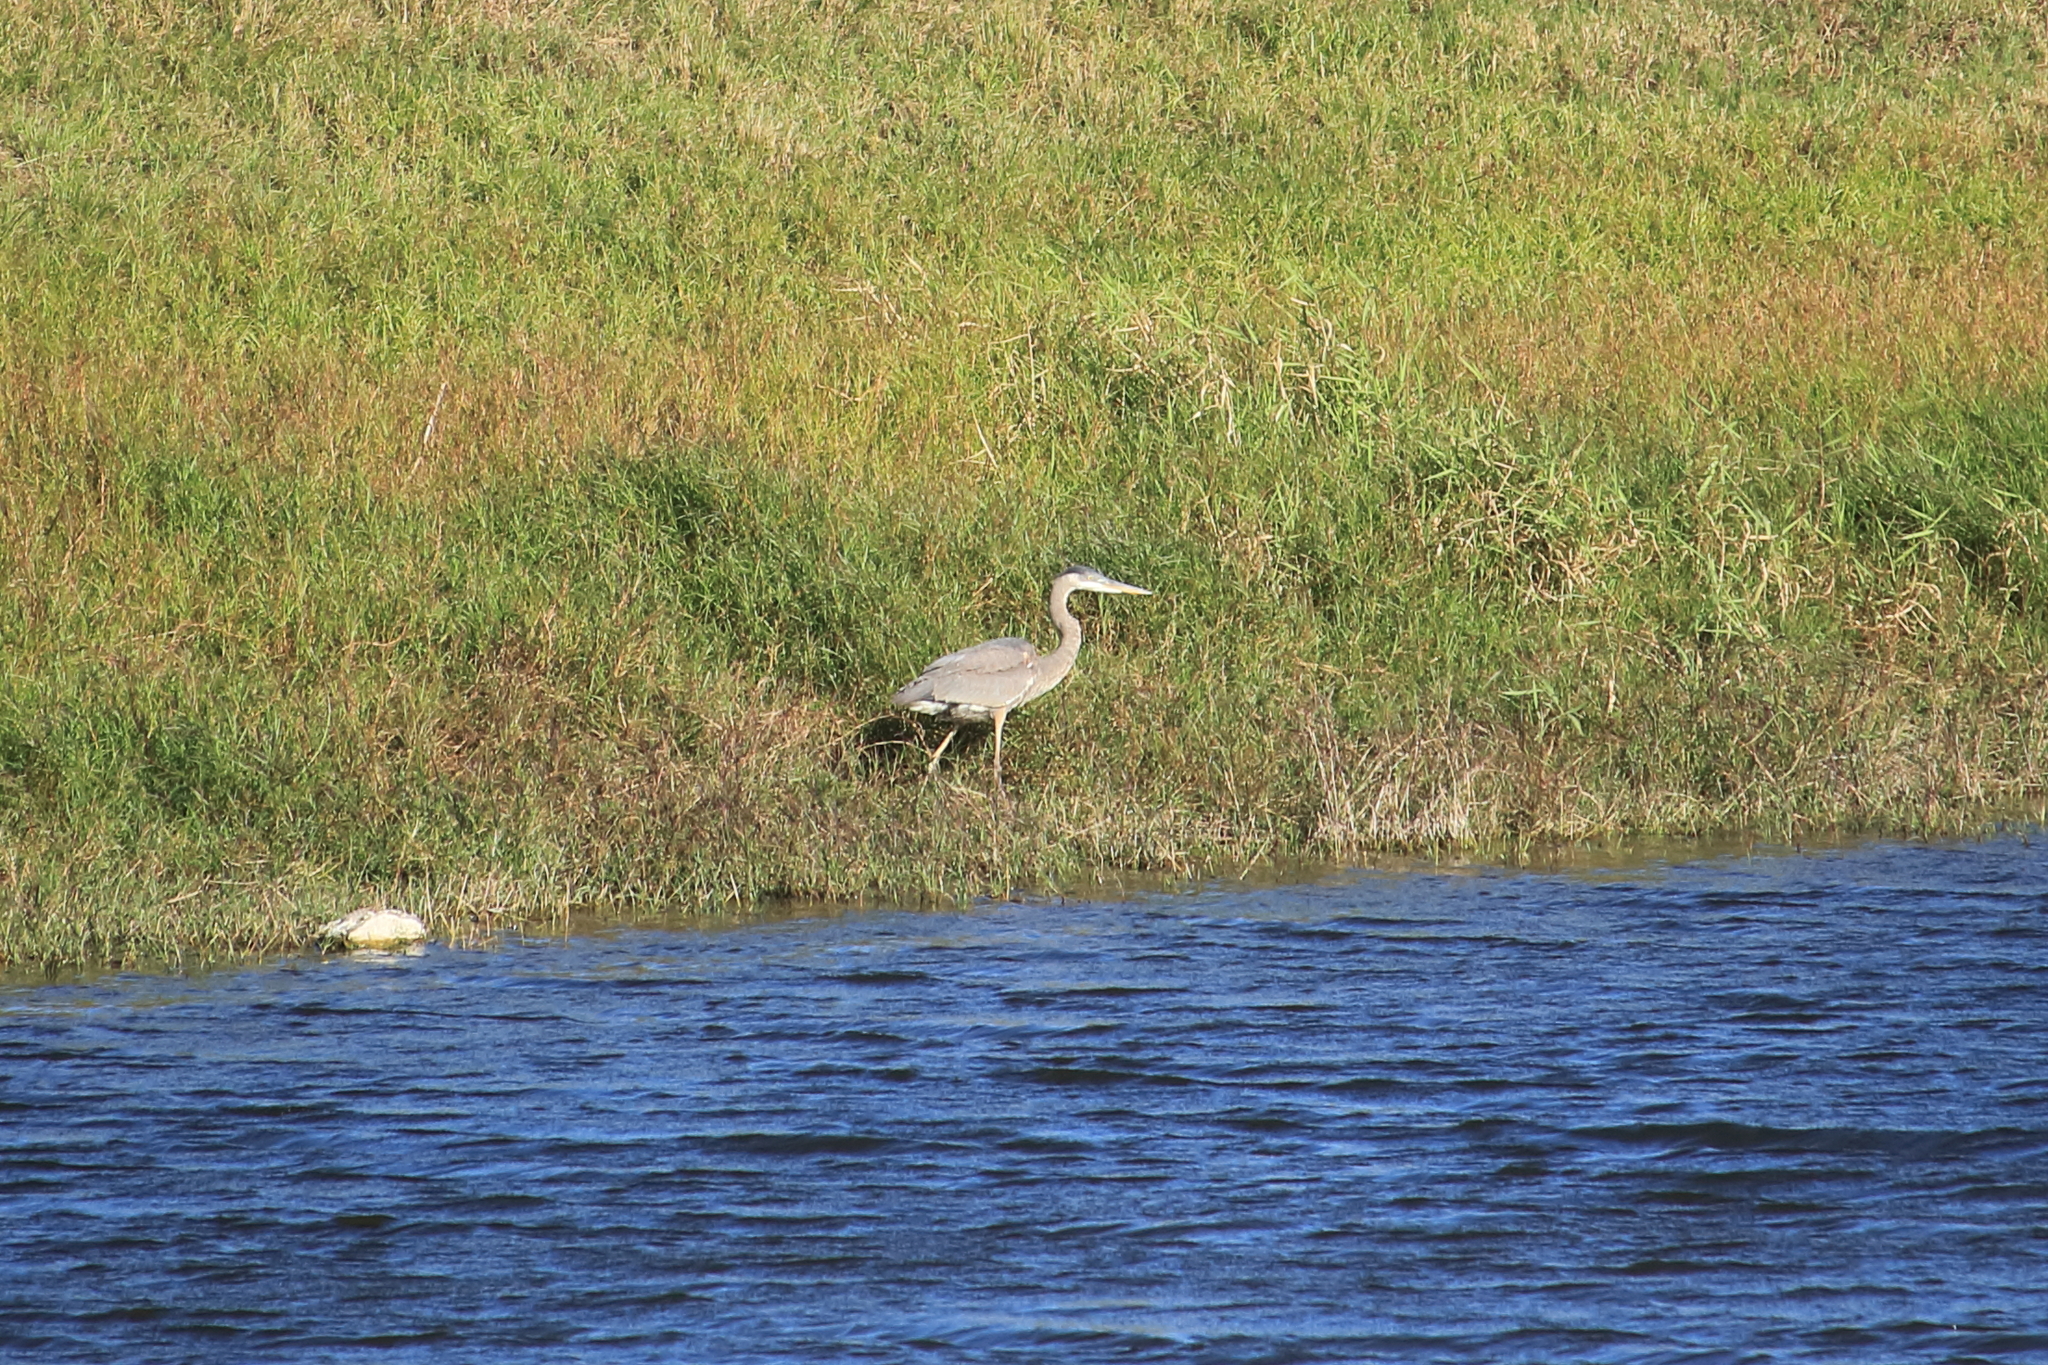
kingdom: Animalia
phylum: Chordata
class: Aves
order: Pelecaniformes
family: Ardeidae
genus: Ardea
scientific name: Ardea herodias
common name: Great blue heron
